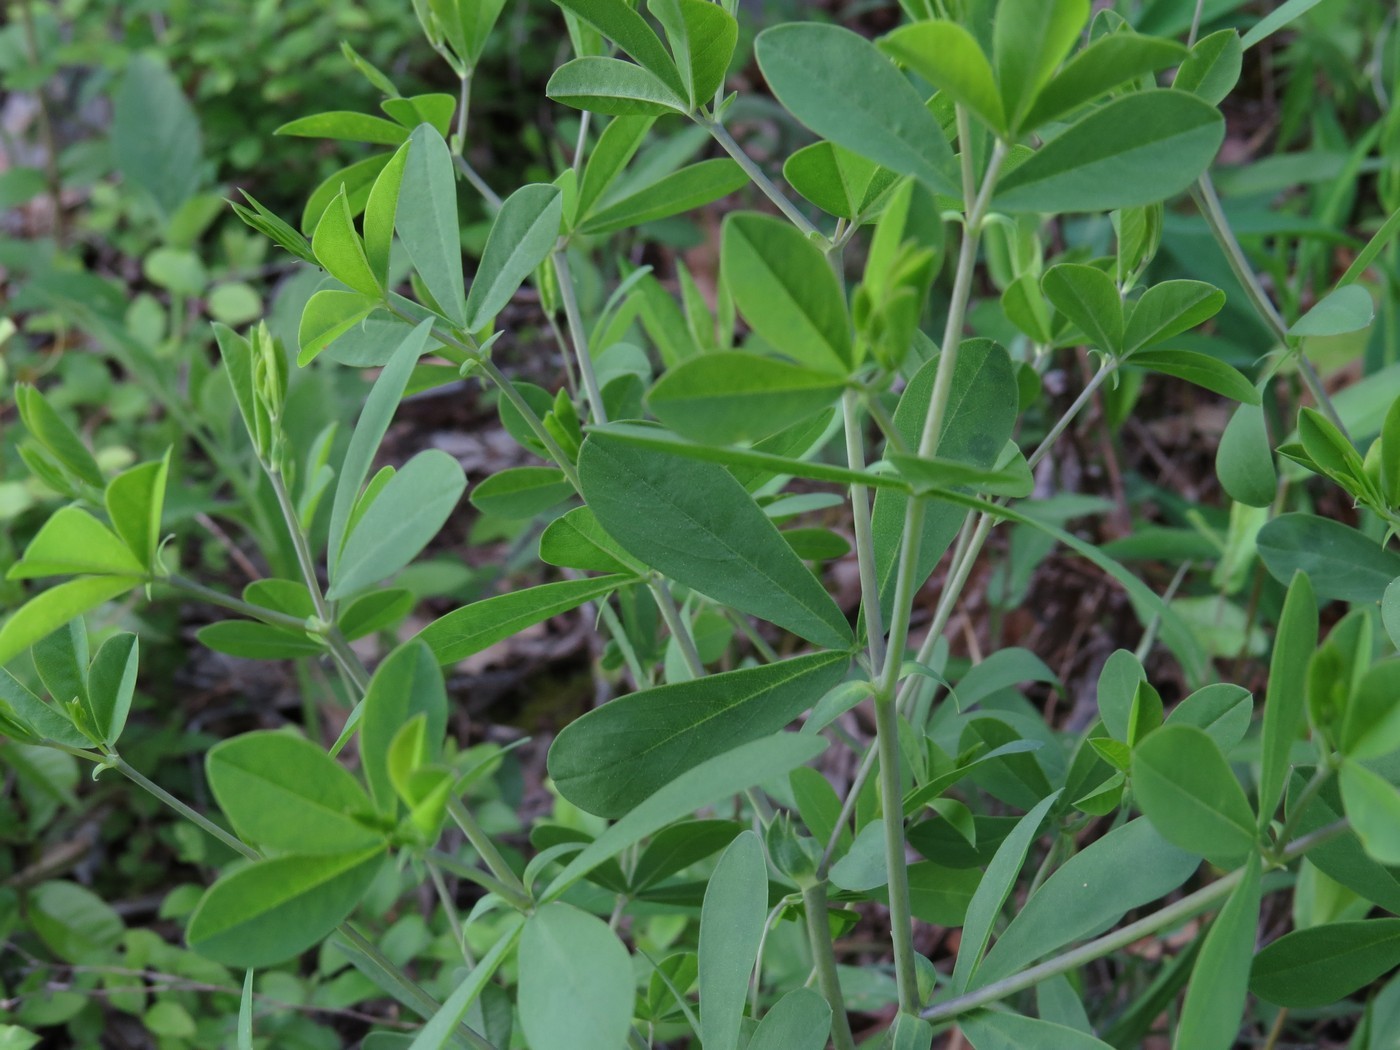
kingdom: Plantae
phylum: Tracheophyta
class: Magnoliopsida
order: Fabales
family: Fabaceae
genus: Baptisia
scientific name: Baptisia australis
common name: Blue false indigo
